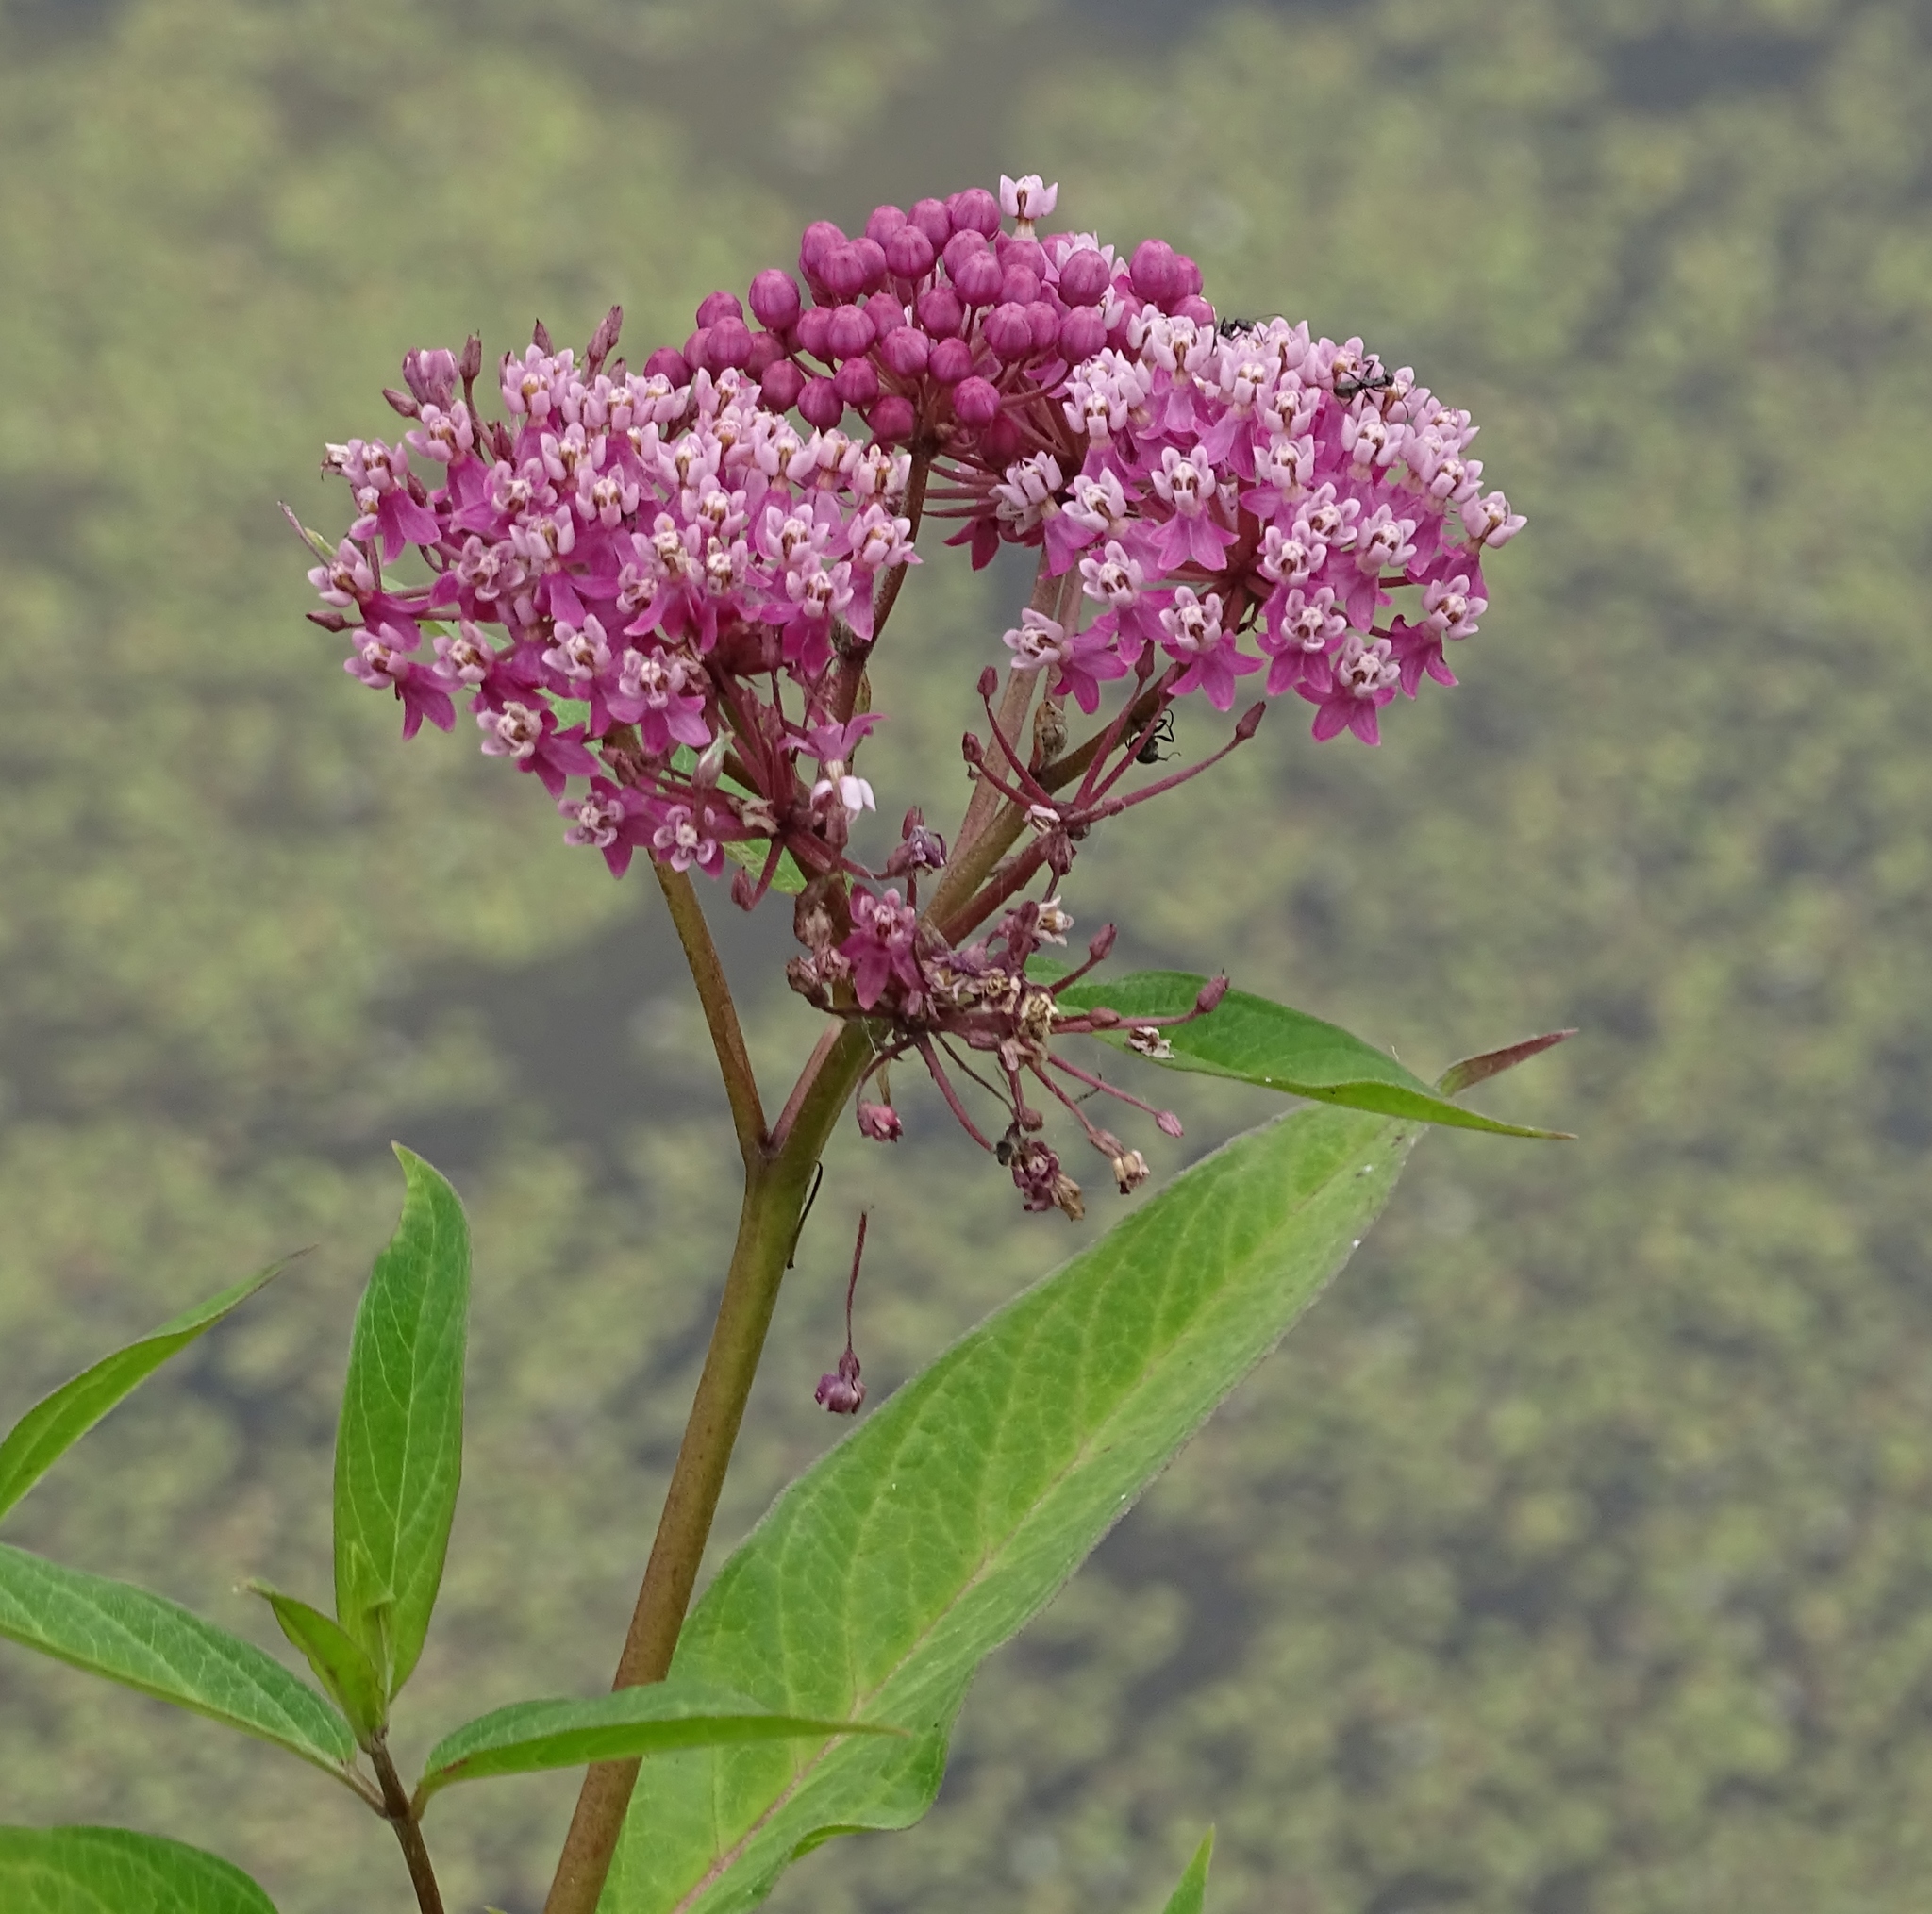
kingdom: Plantae
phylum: Tracheophyta
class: Magnoliopsida
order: Gentianales
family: Apocynaceae
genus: Asclepias
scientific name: Asclepias incarnata
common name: Swamp milkweed
